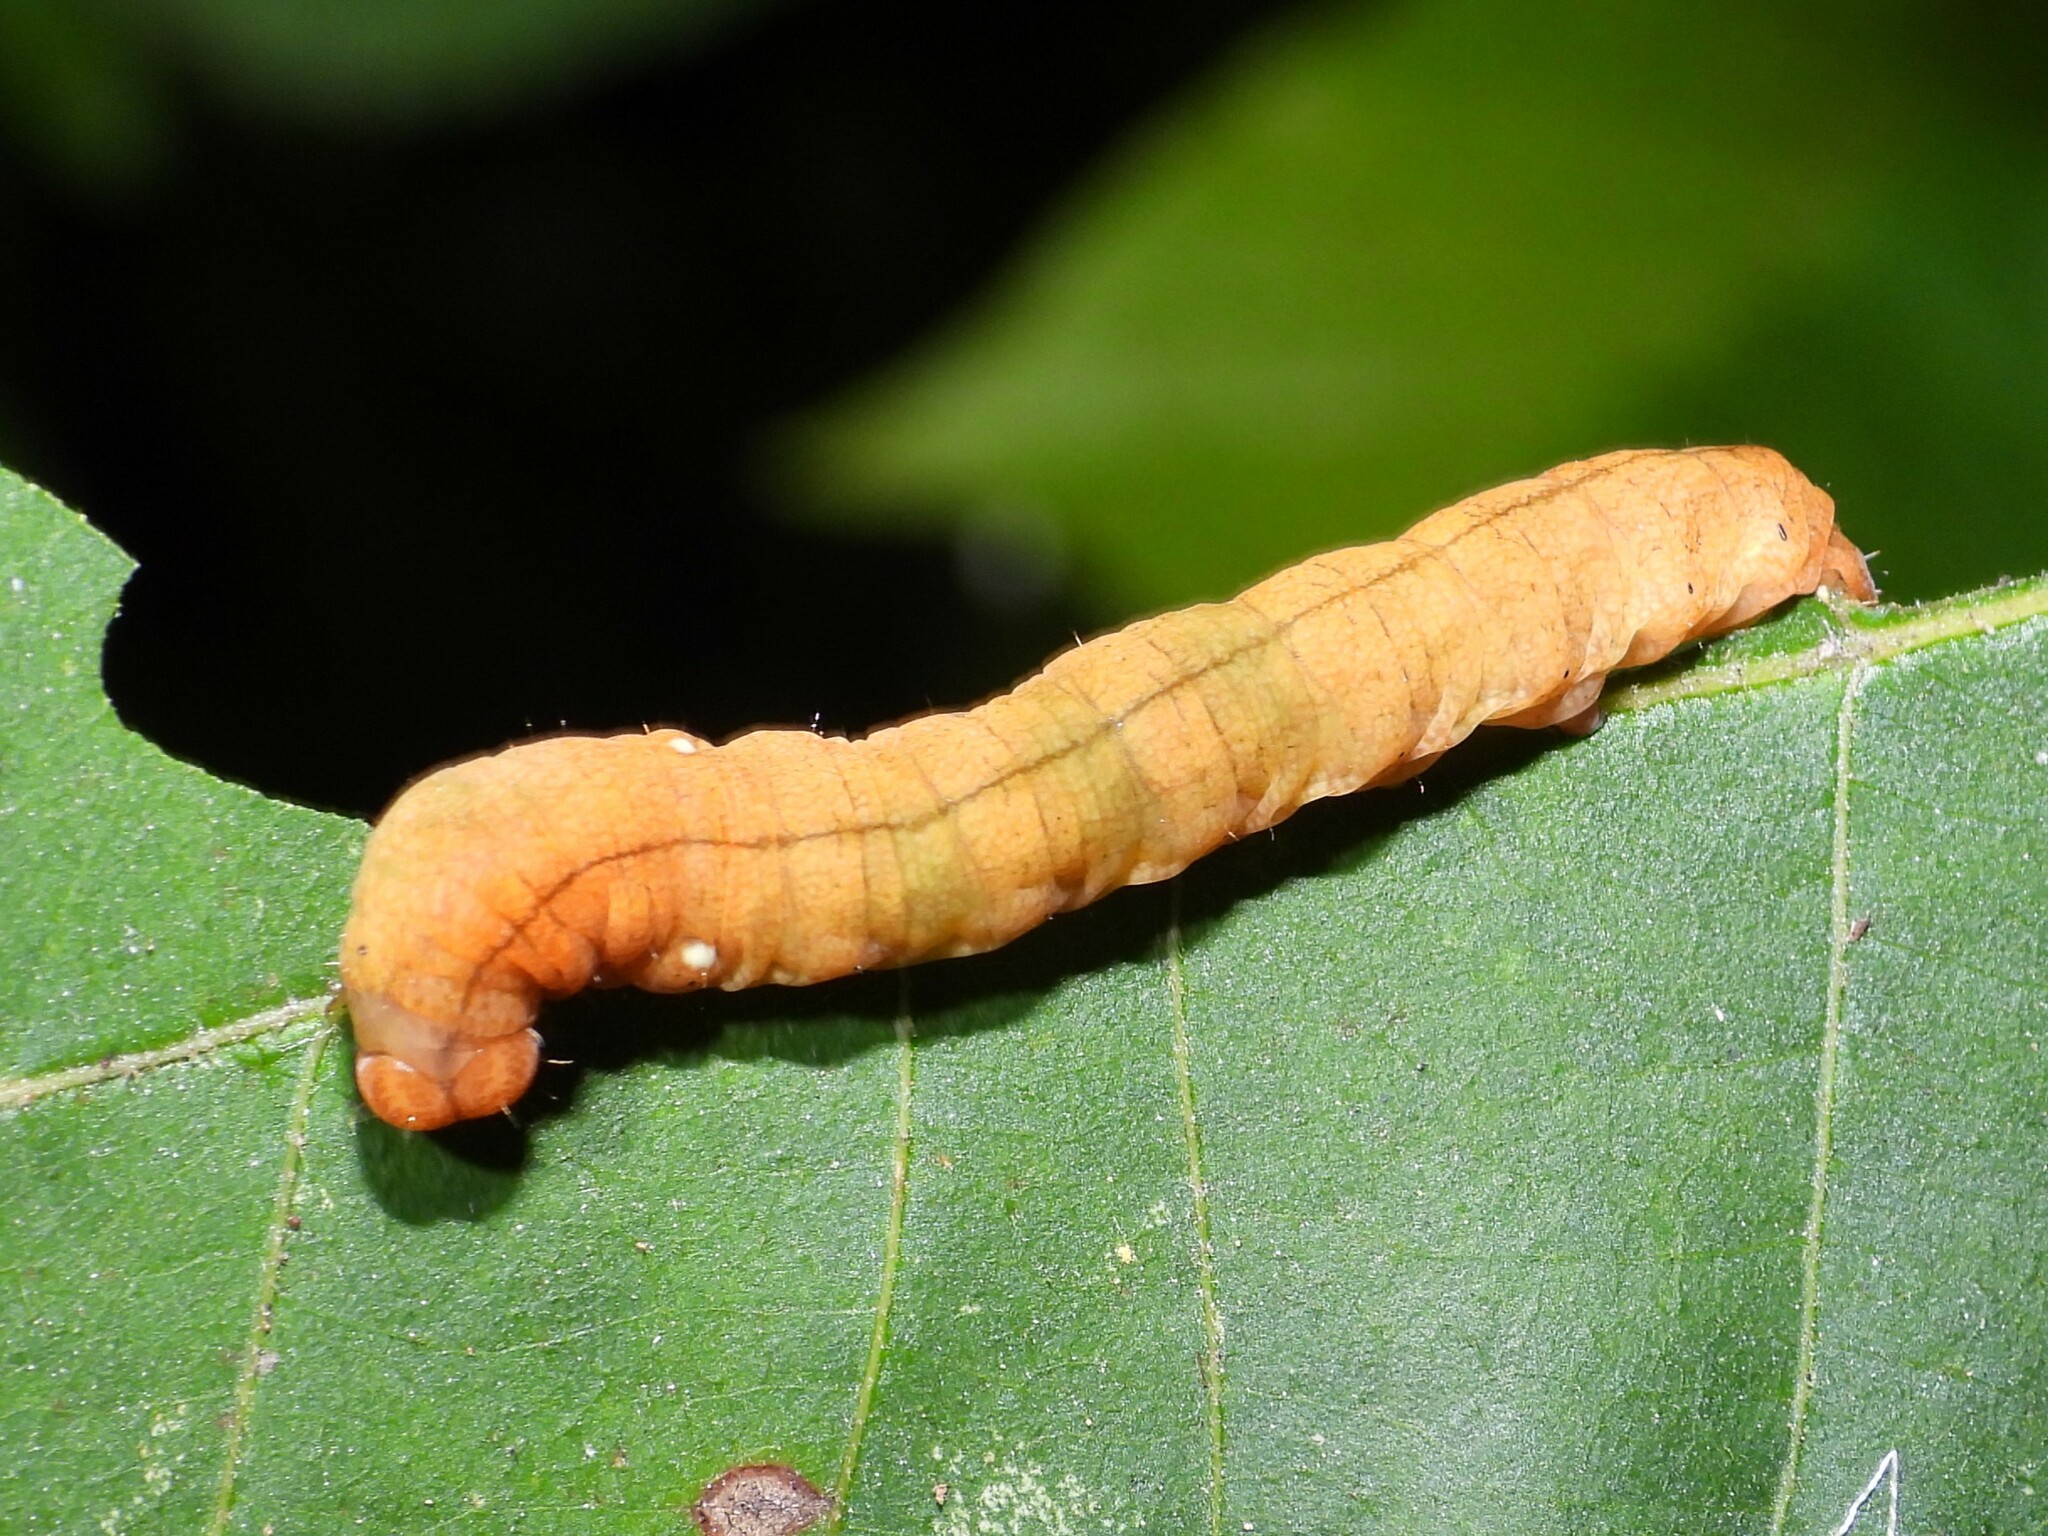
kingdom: Animalia
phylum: Arthropoda
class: Insecta
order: Lepidoptera
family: Drepanidae
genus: Pseudothyatira
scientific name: Pseudothyatira cymatophoroides
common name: Tufted thyatirid moth
